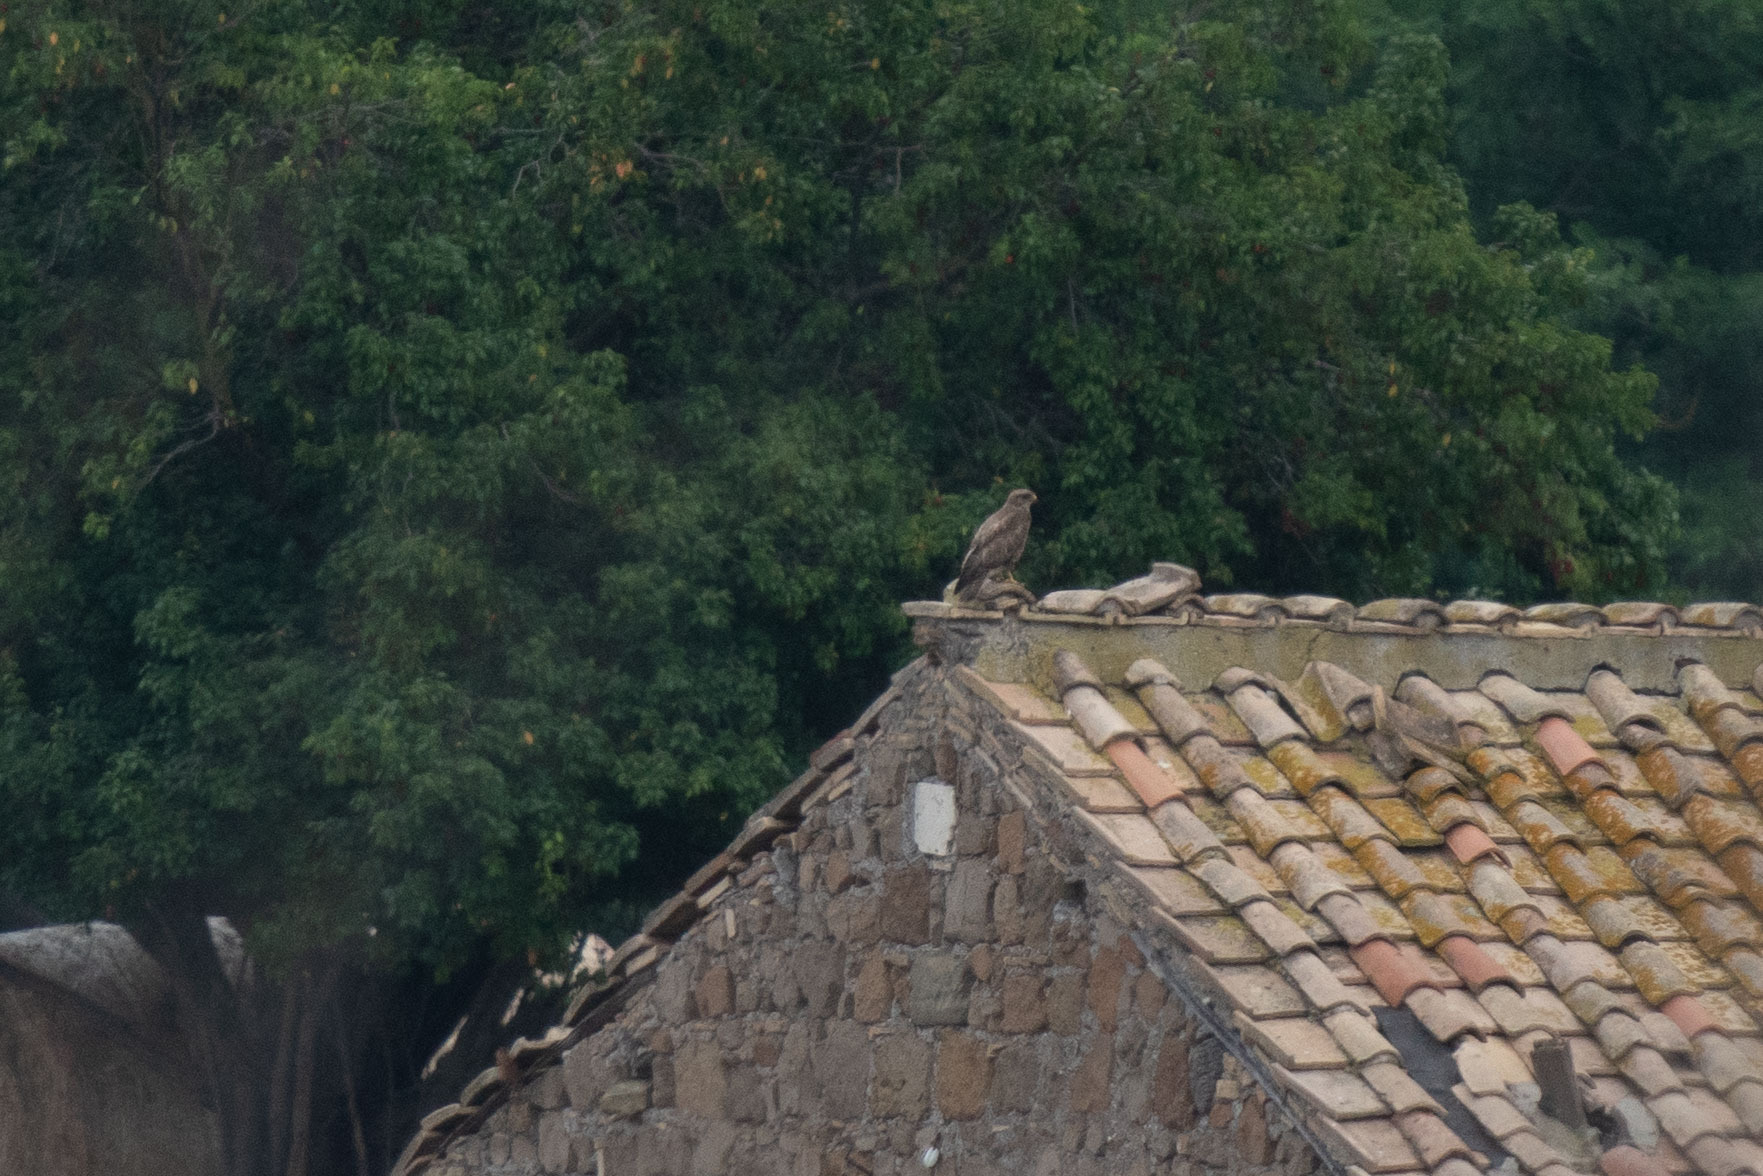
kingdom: Animalia
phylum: Chordata
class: Aves
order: Accipitriformes
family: Accipitridae
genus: Buteo
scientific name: Buteo buteo
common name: Common buzzard
